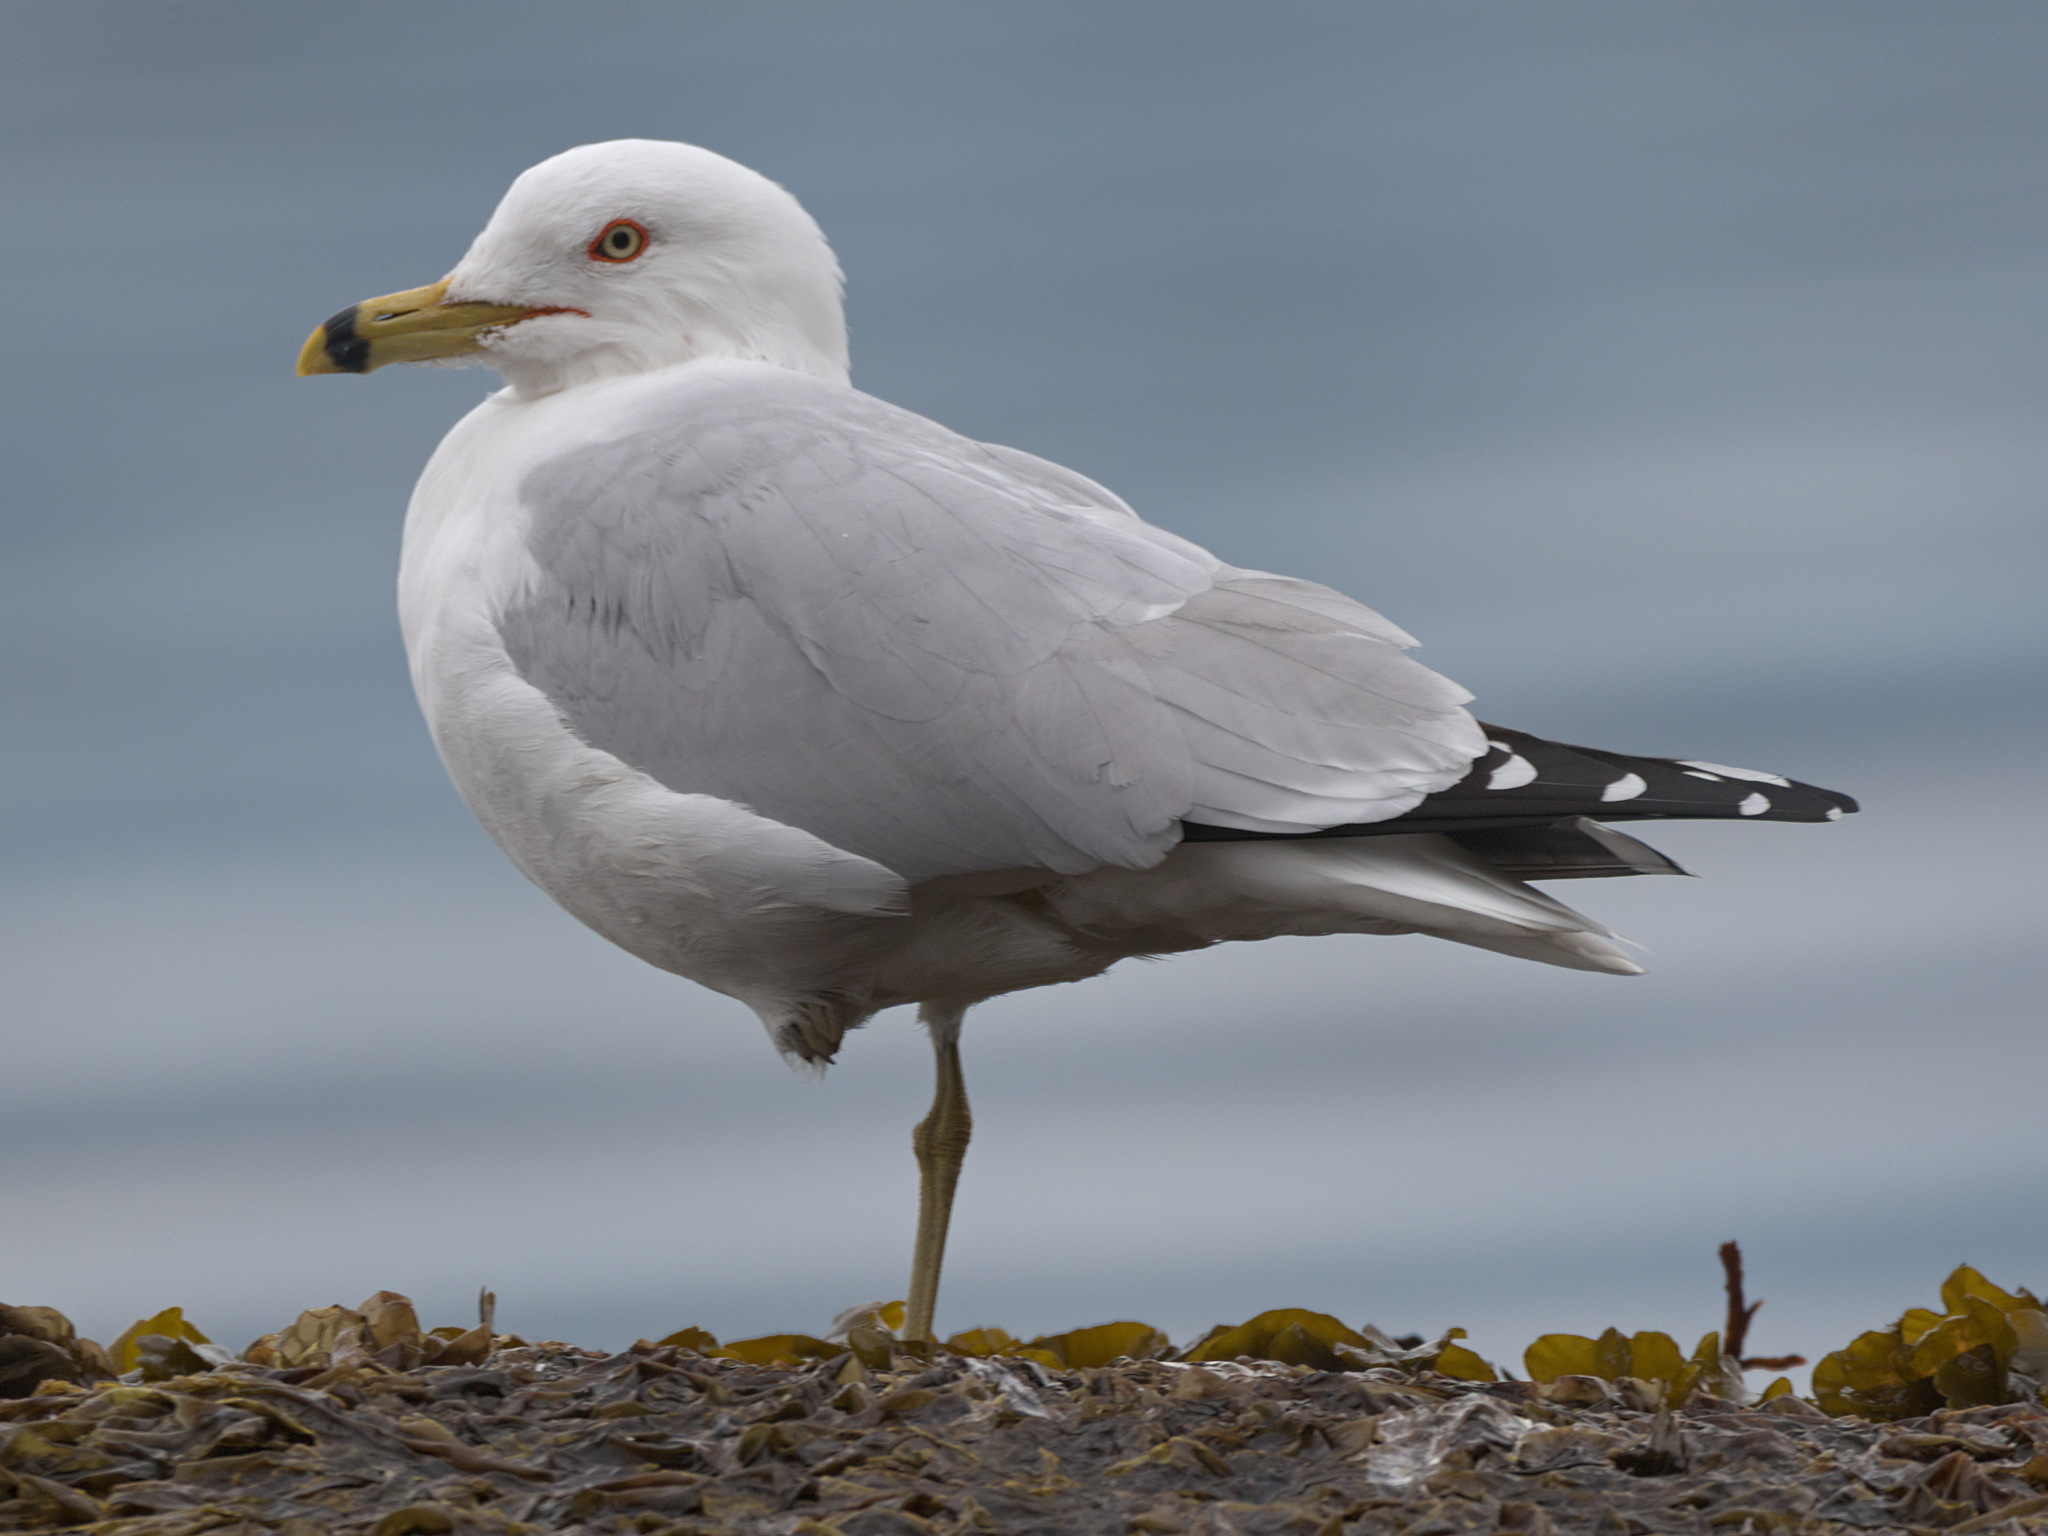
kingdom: Animalia
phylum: Chordata
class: Aves
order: Charadriiformes
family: Laridae
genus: Larus
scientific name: Larus delawarensis
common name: Ring-billed gull
